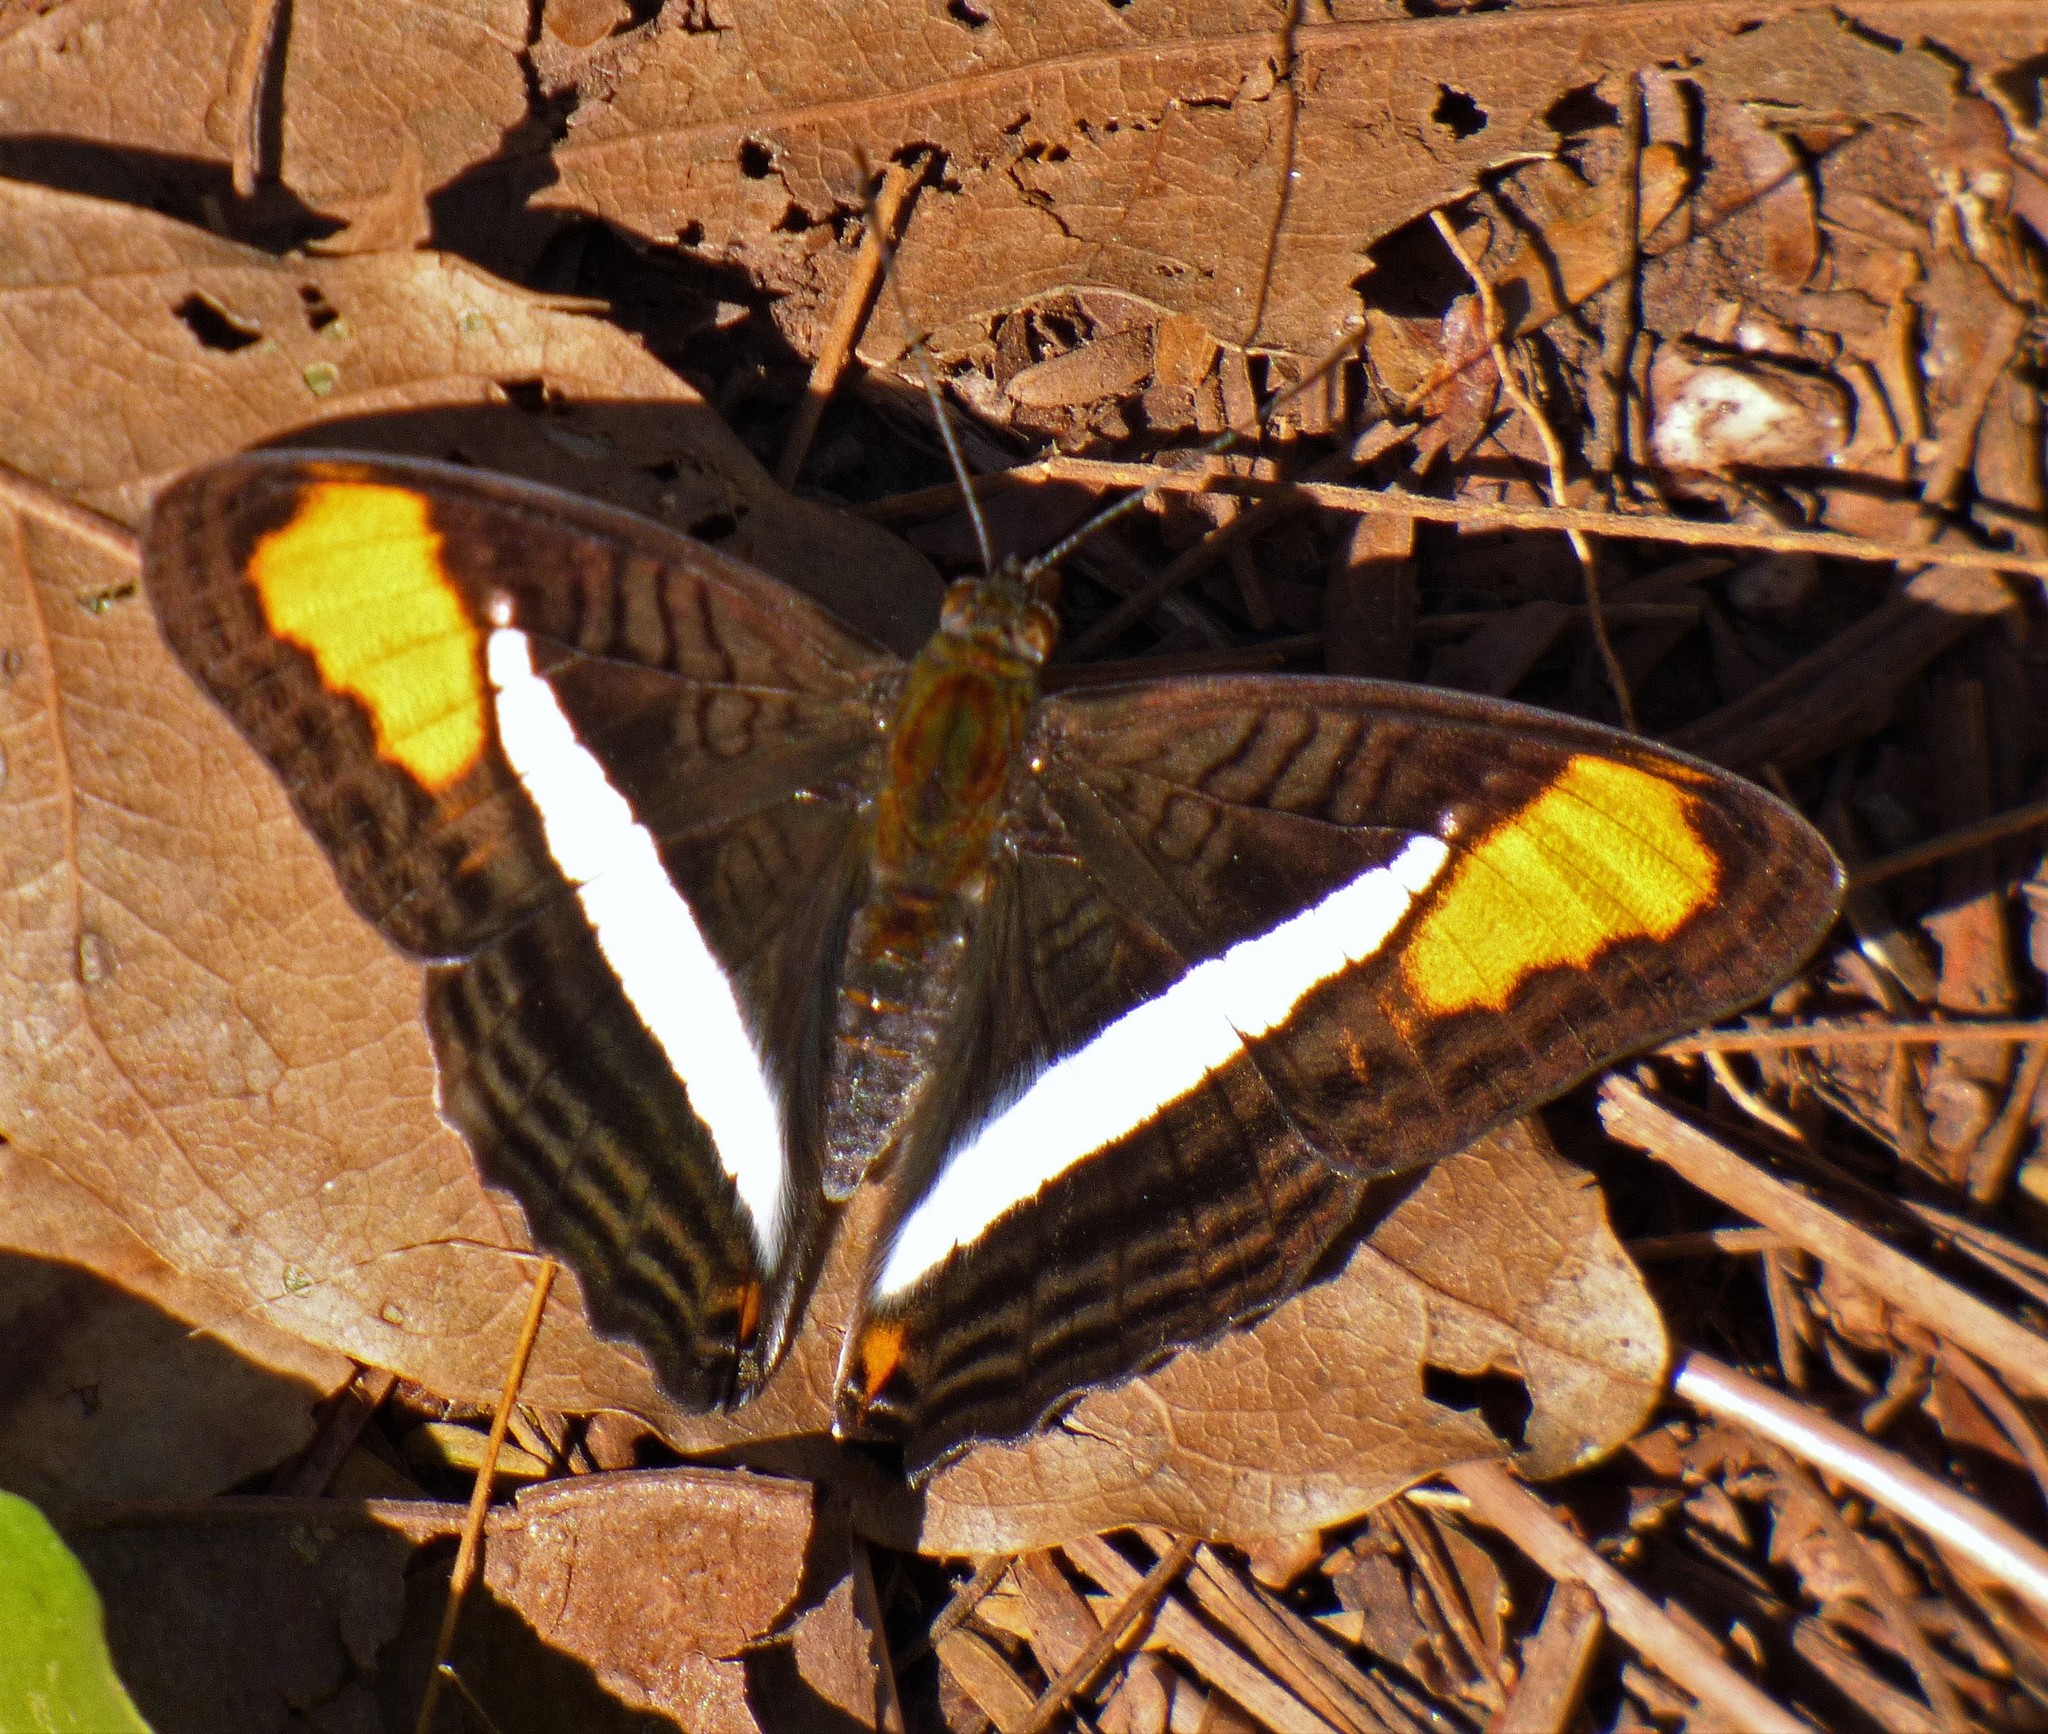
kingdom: Animalia
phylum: Arthropoda
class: Insecta
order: Lepidoptera
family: Nymphalidae
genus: Limenitis
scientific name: Limenitis calliphane
